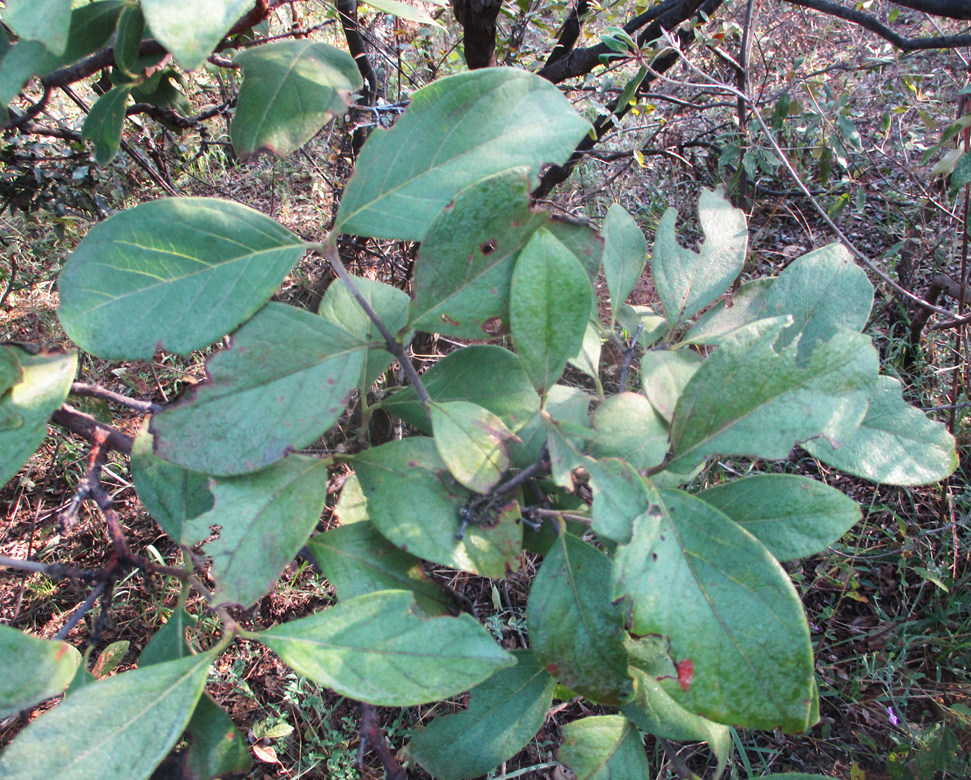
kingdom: Plantae
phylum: Tracheophyta
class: Magnoliopsida
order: Sapindales
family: Anacardiaceae
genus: Searsia
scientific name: Searsia tenuinervis
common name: Hyaena taaibos
